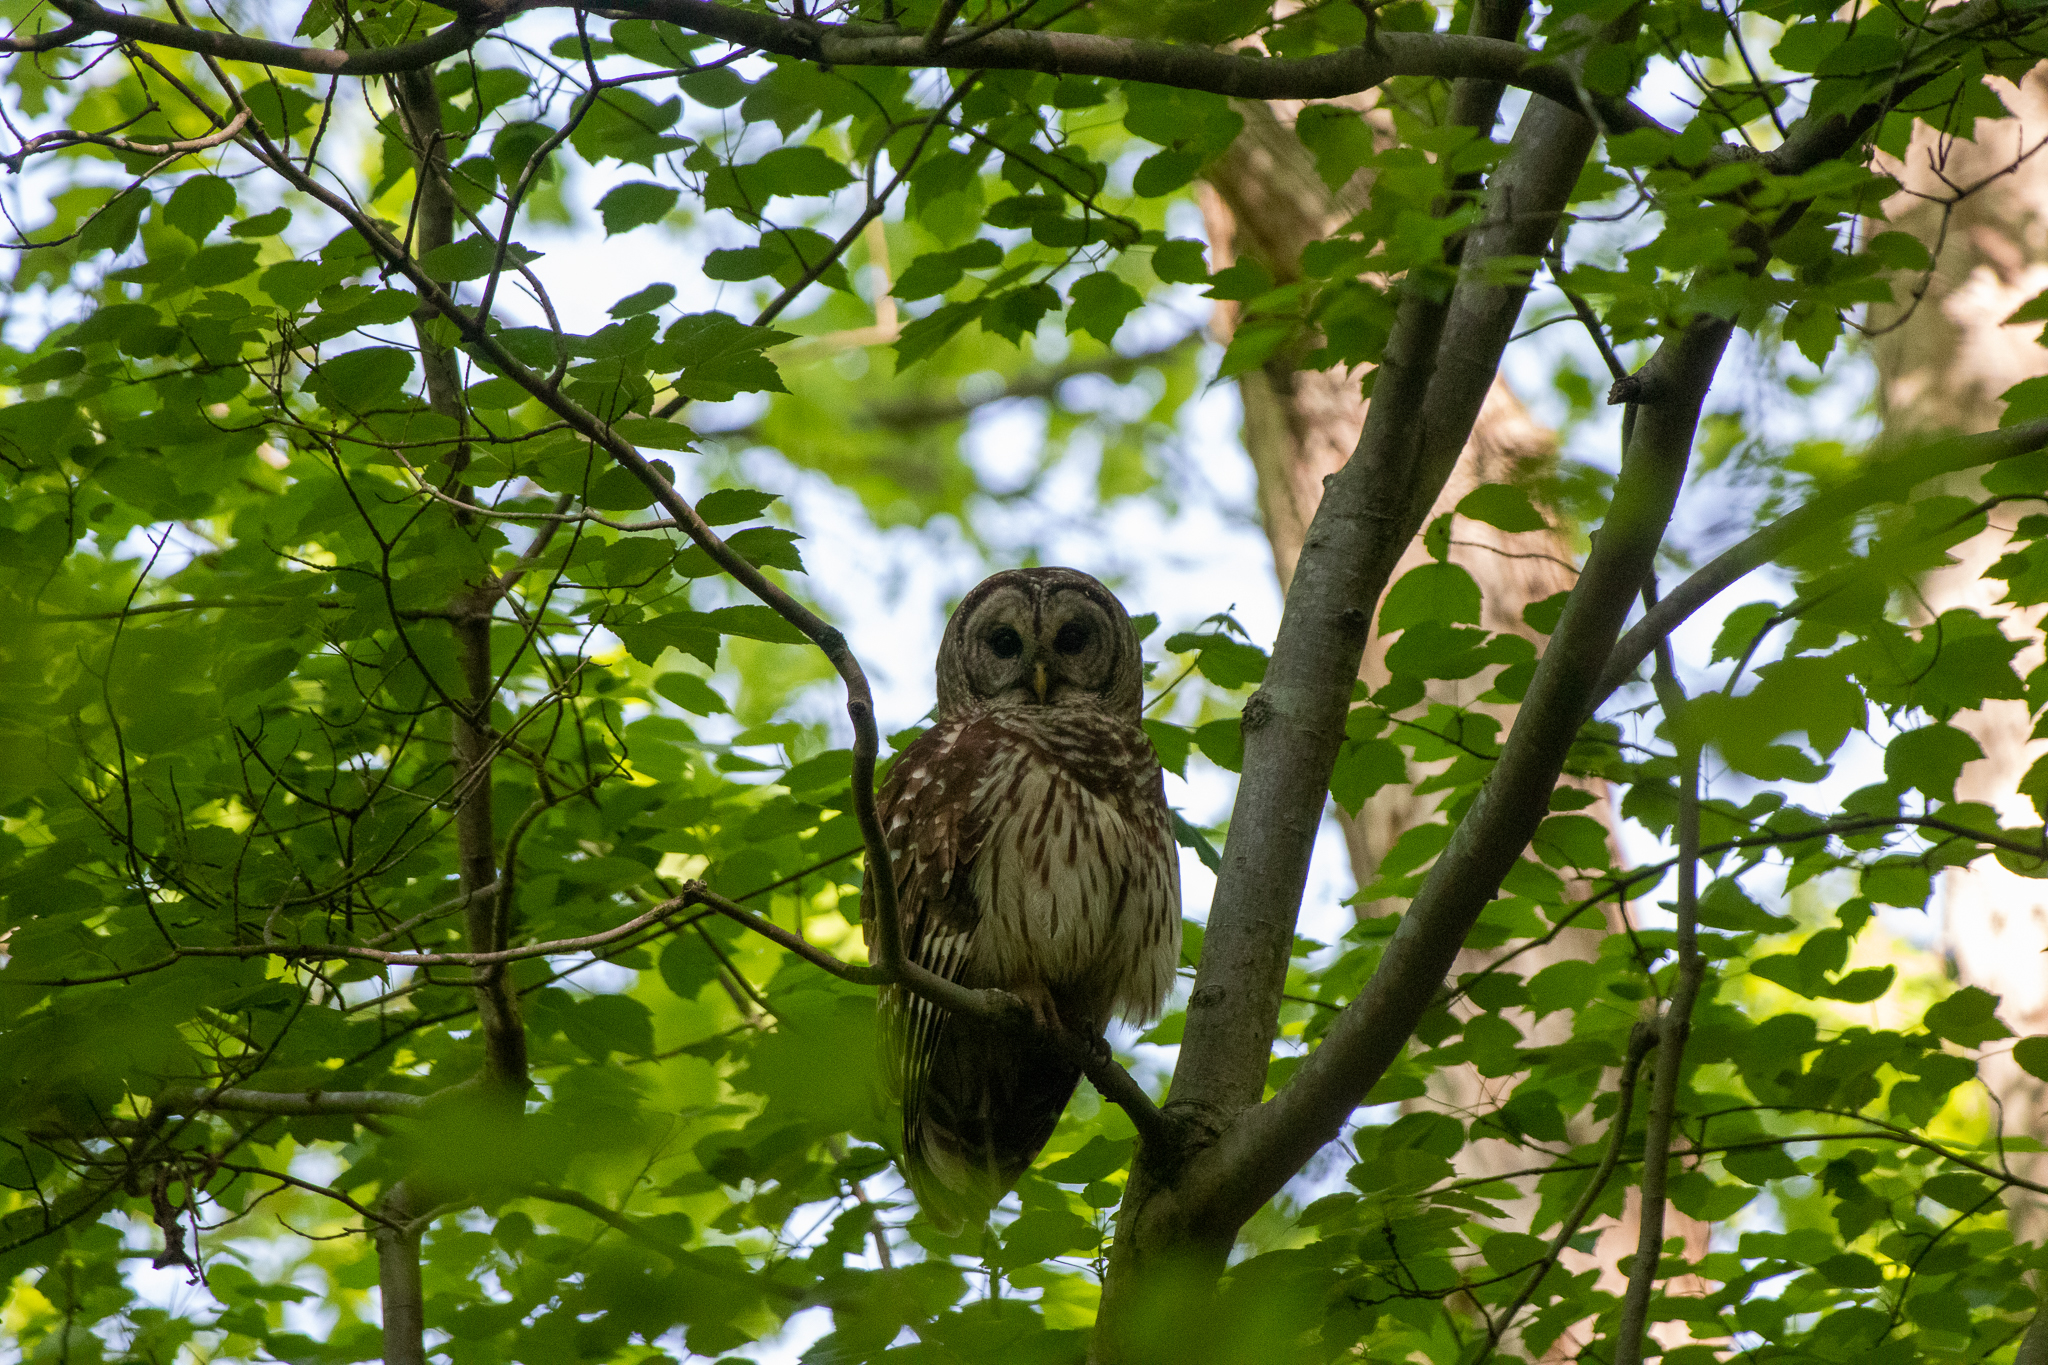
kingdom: Animalia
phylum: Chordata
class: Aves
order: Strigiformes
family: Strigidae
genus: Strix
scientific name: Strix varia
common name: Barred owl
